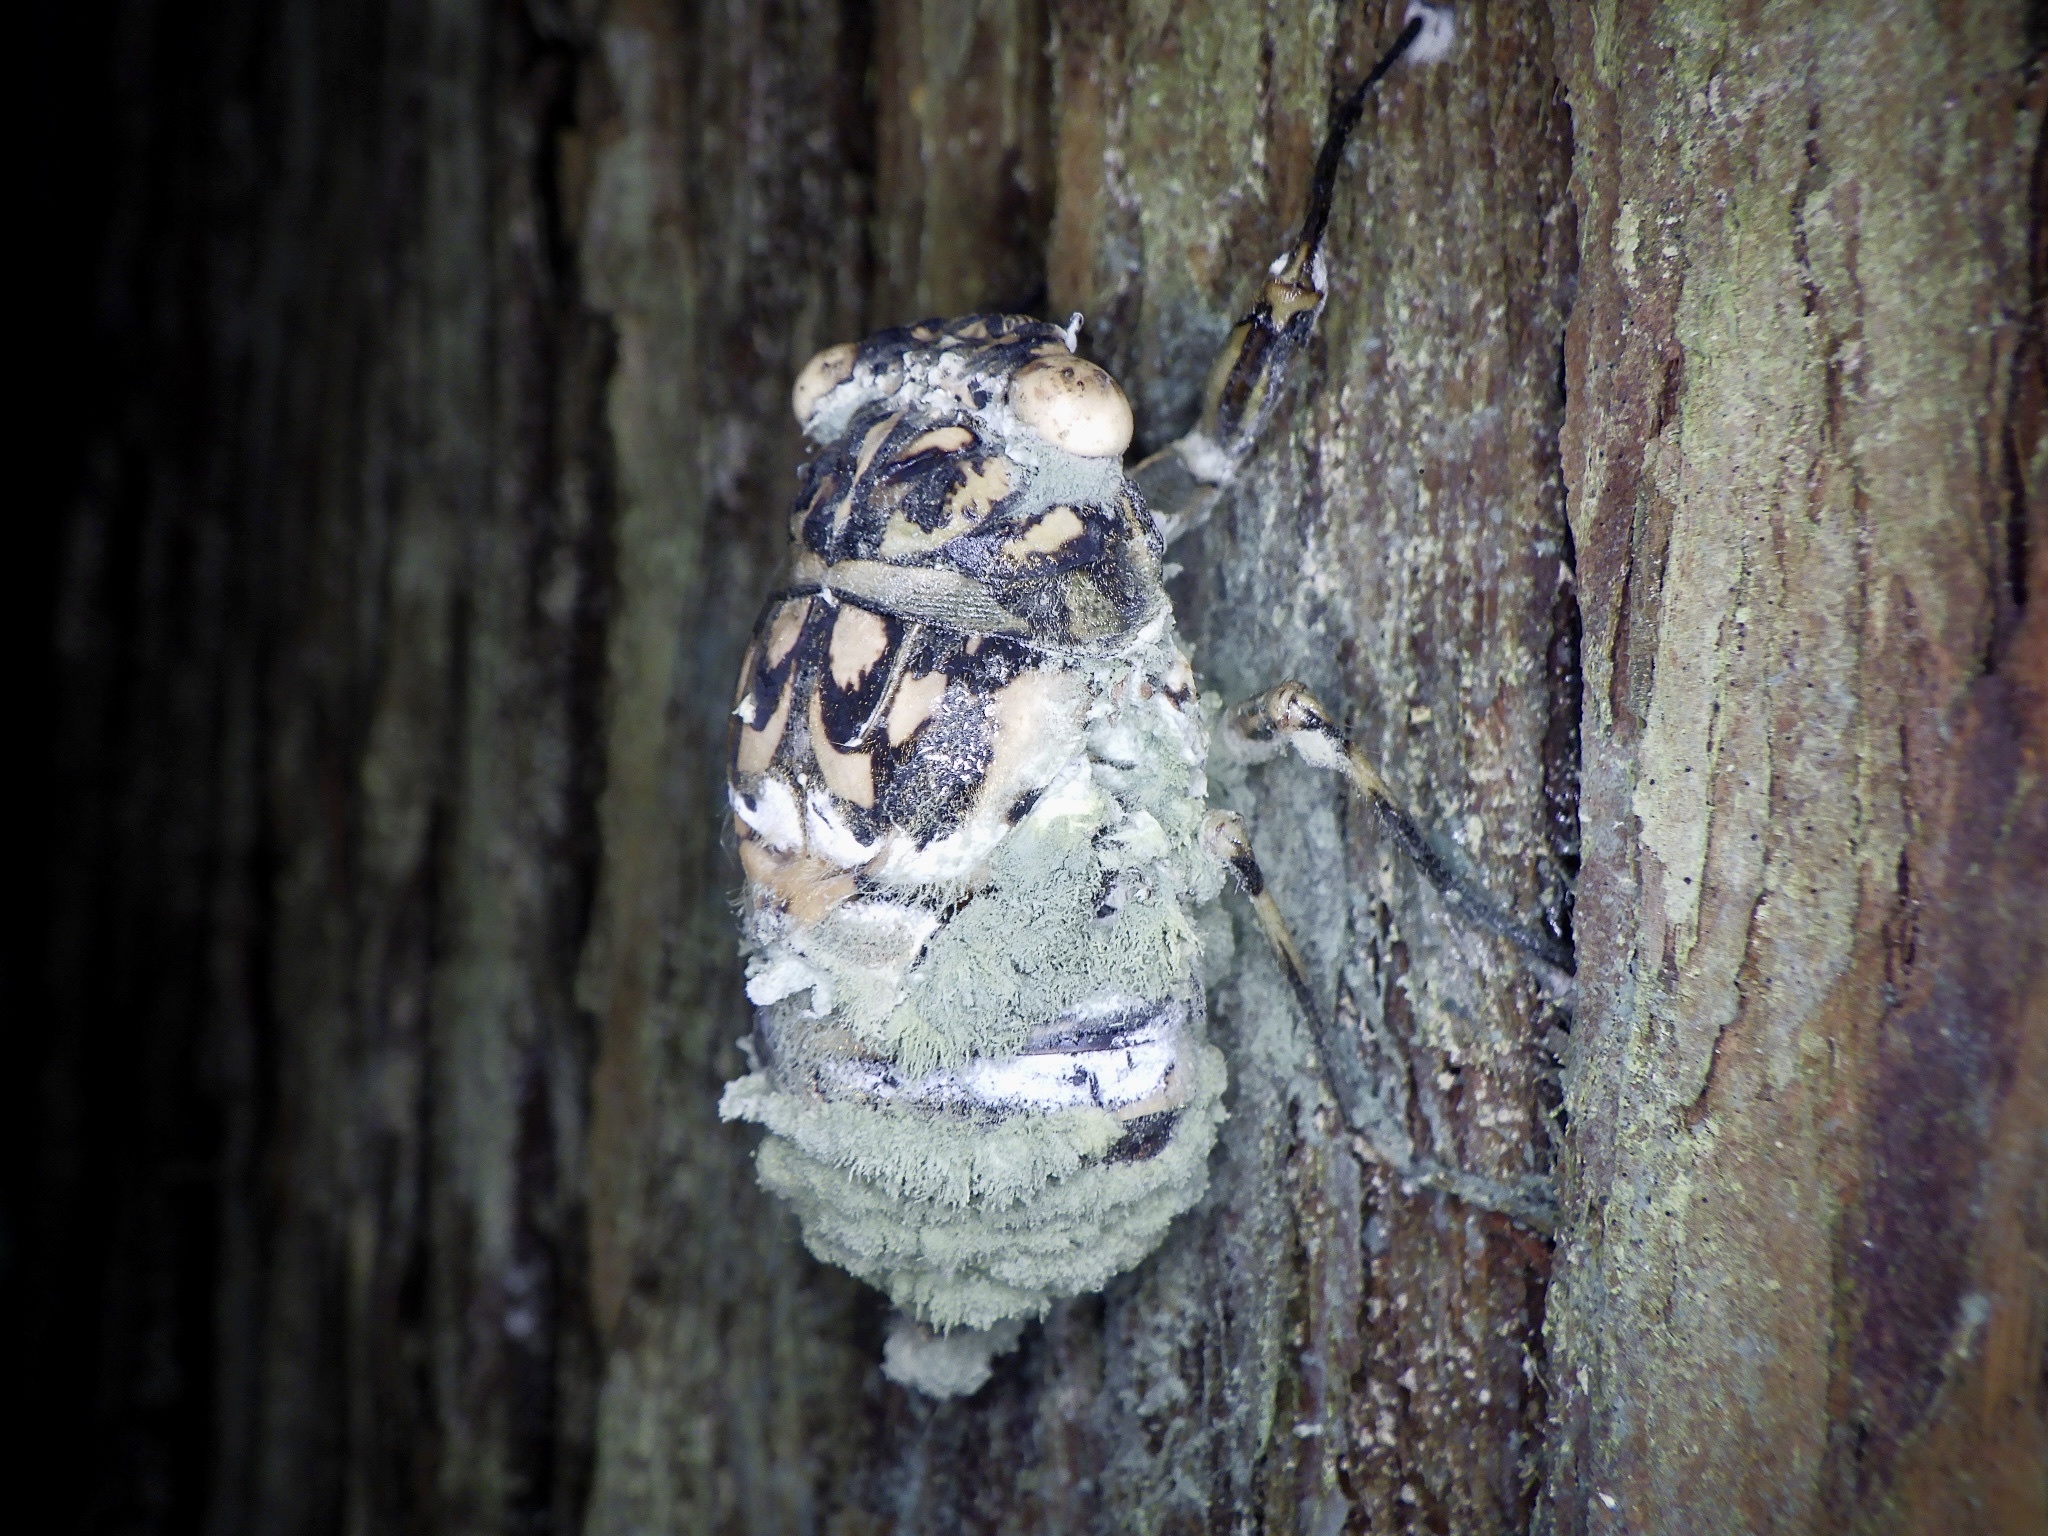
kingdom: Animalia
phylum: Arthropoda
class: Insecta
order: Hemiptera
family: Cicadidae
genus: Hyalessa
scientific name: Hyalessa maculaticollis
